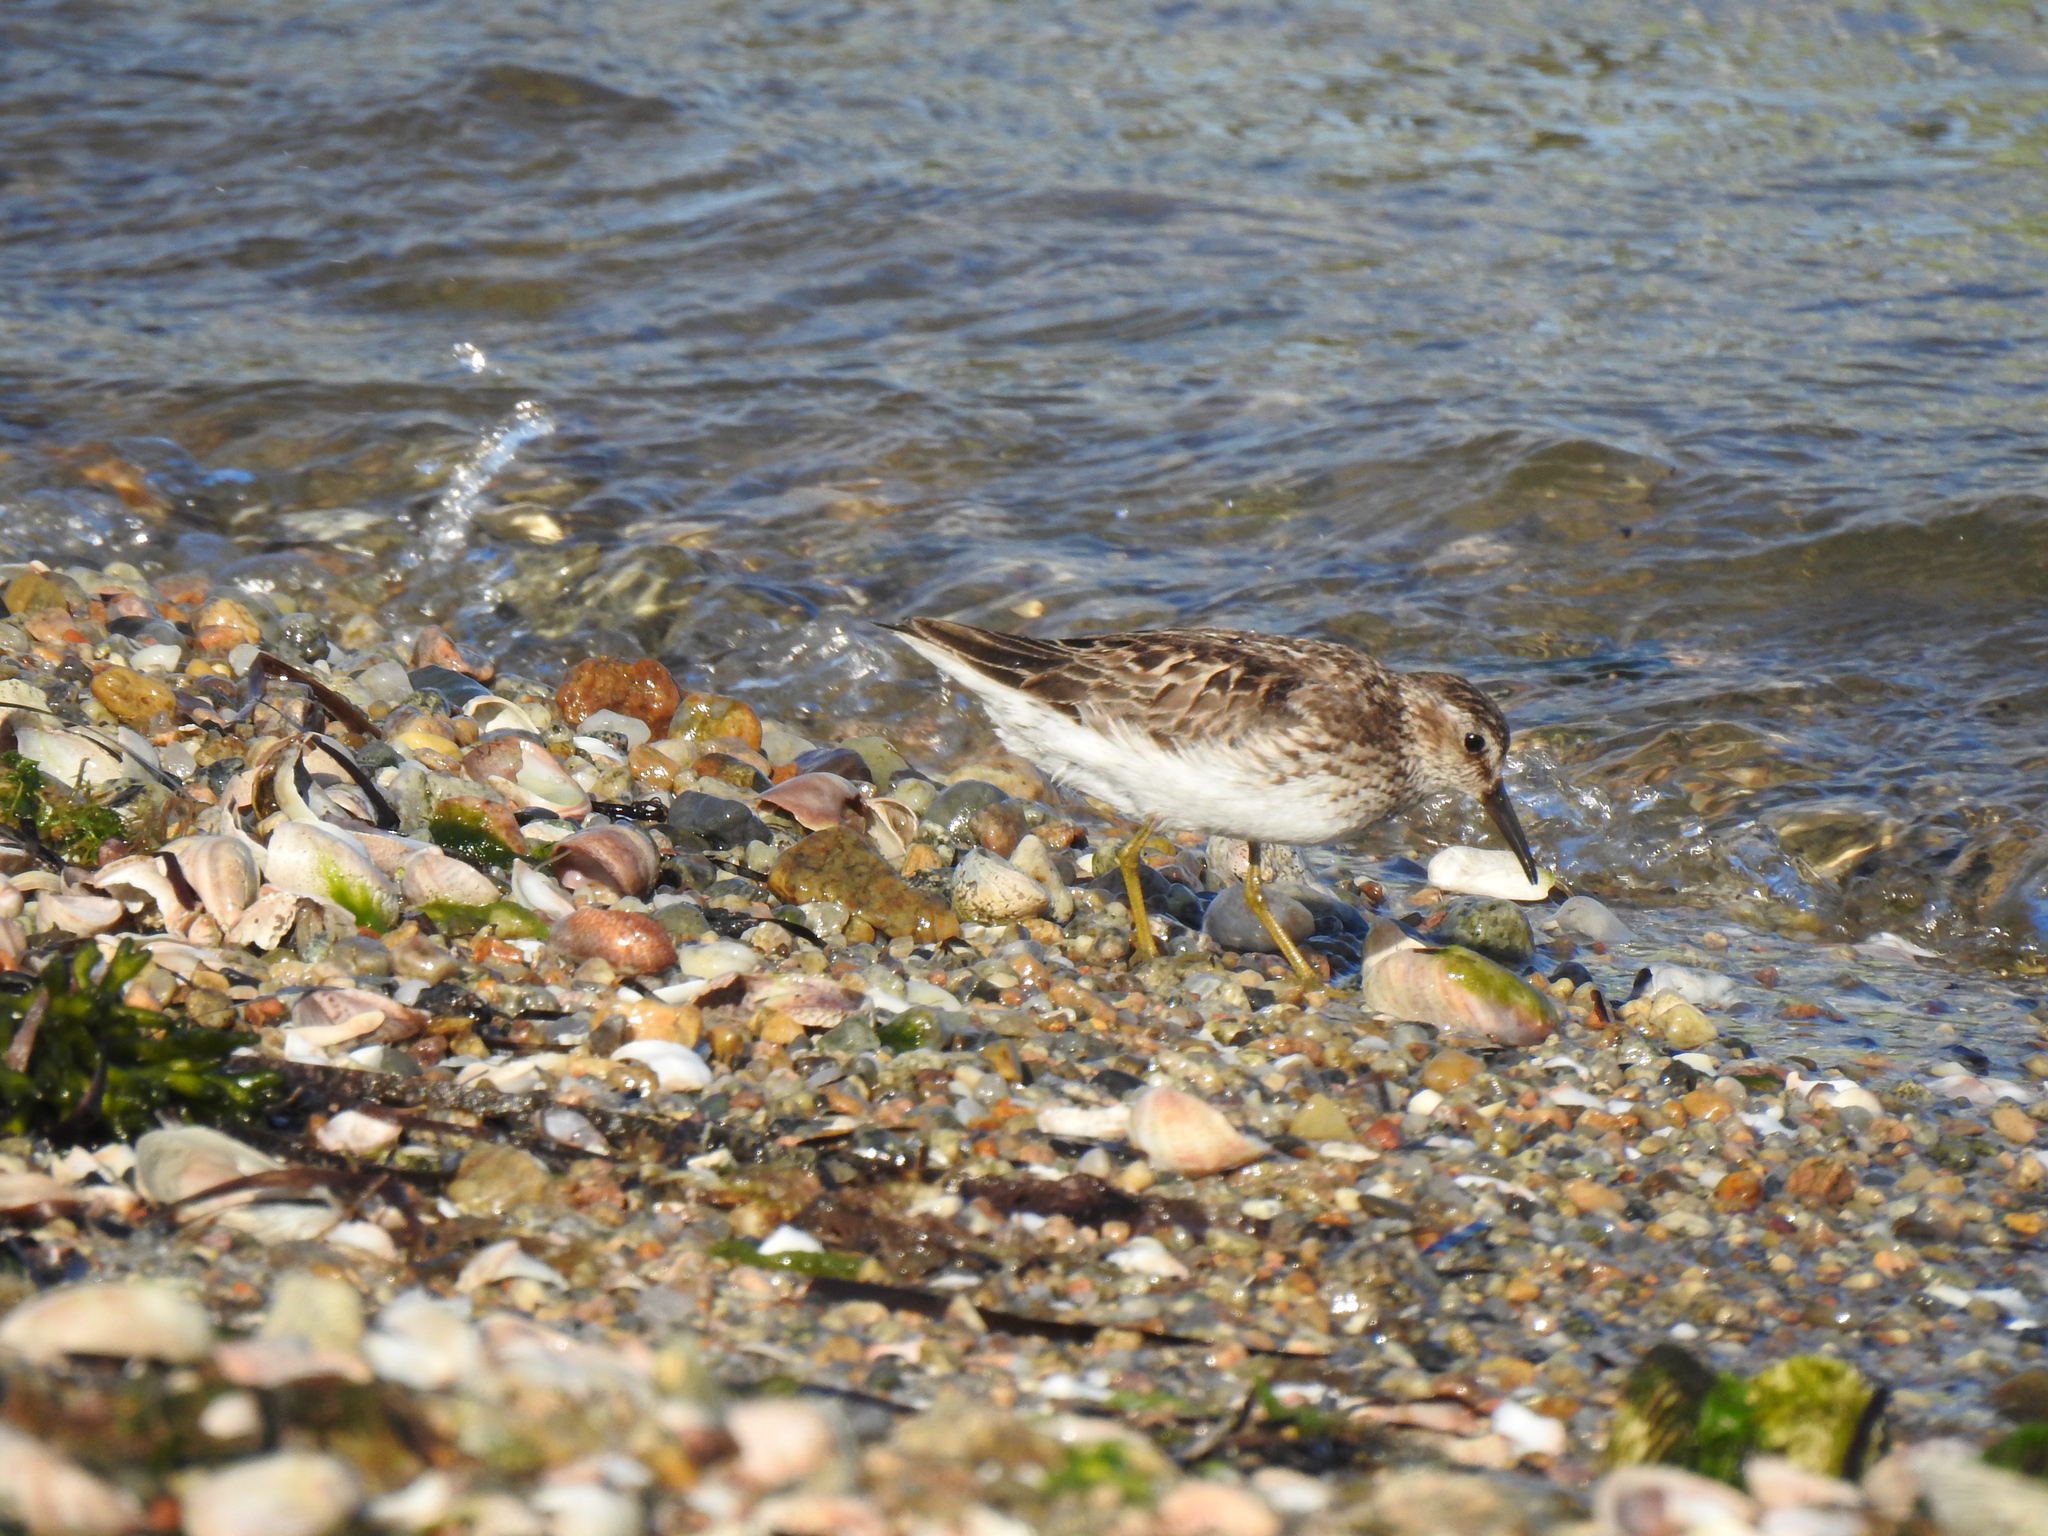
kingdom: Animalia
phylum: Chordata
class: Aves
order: Charadriiformes
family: Scolopacidae
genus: Calidris
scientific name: Calidris minutilla
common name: Least sandpiper
